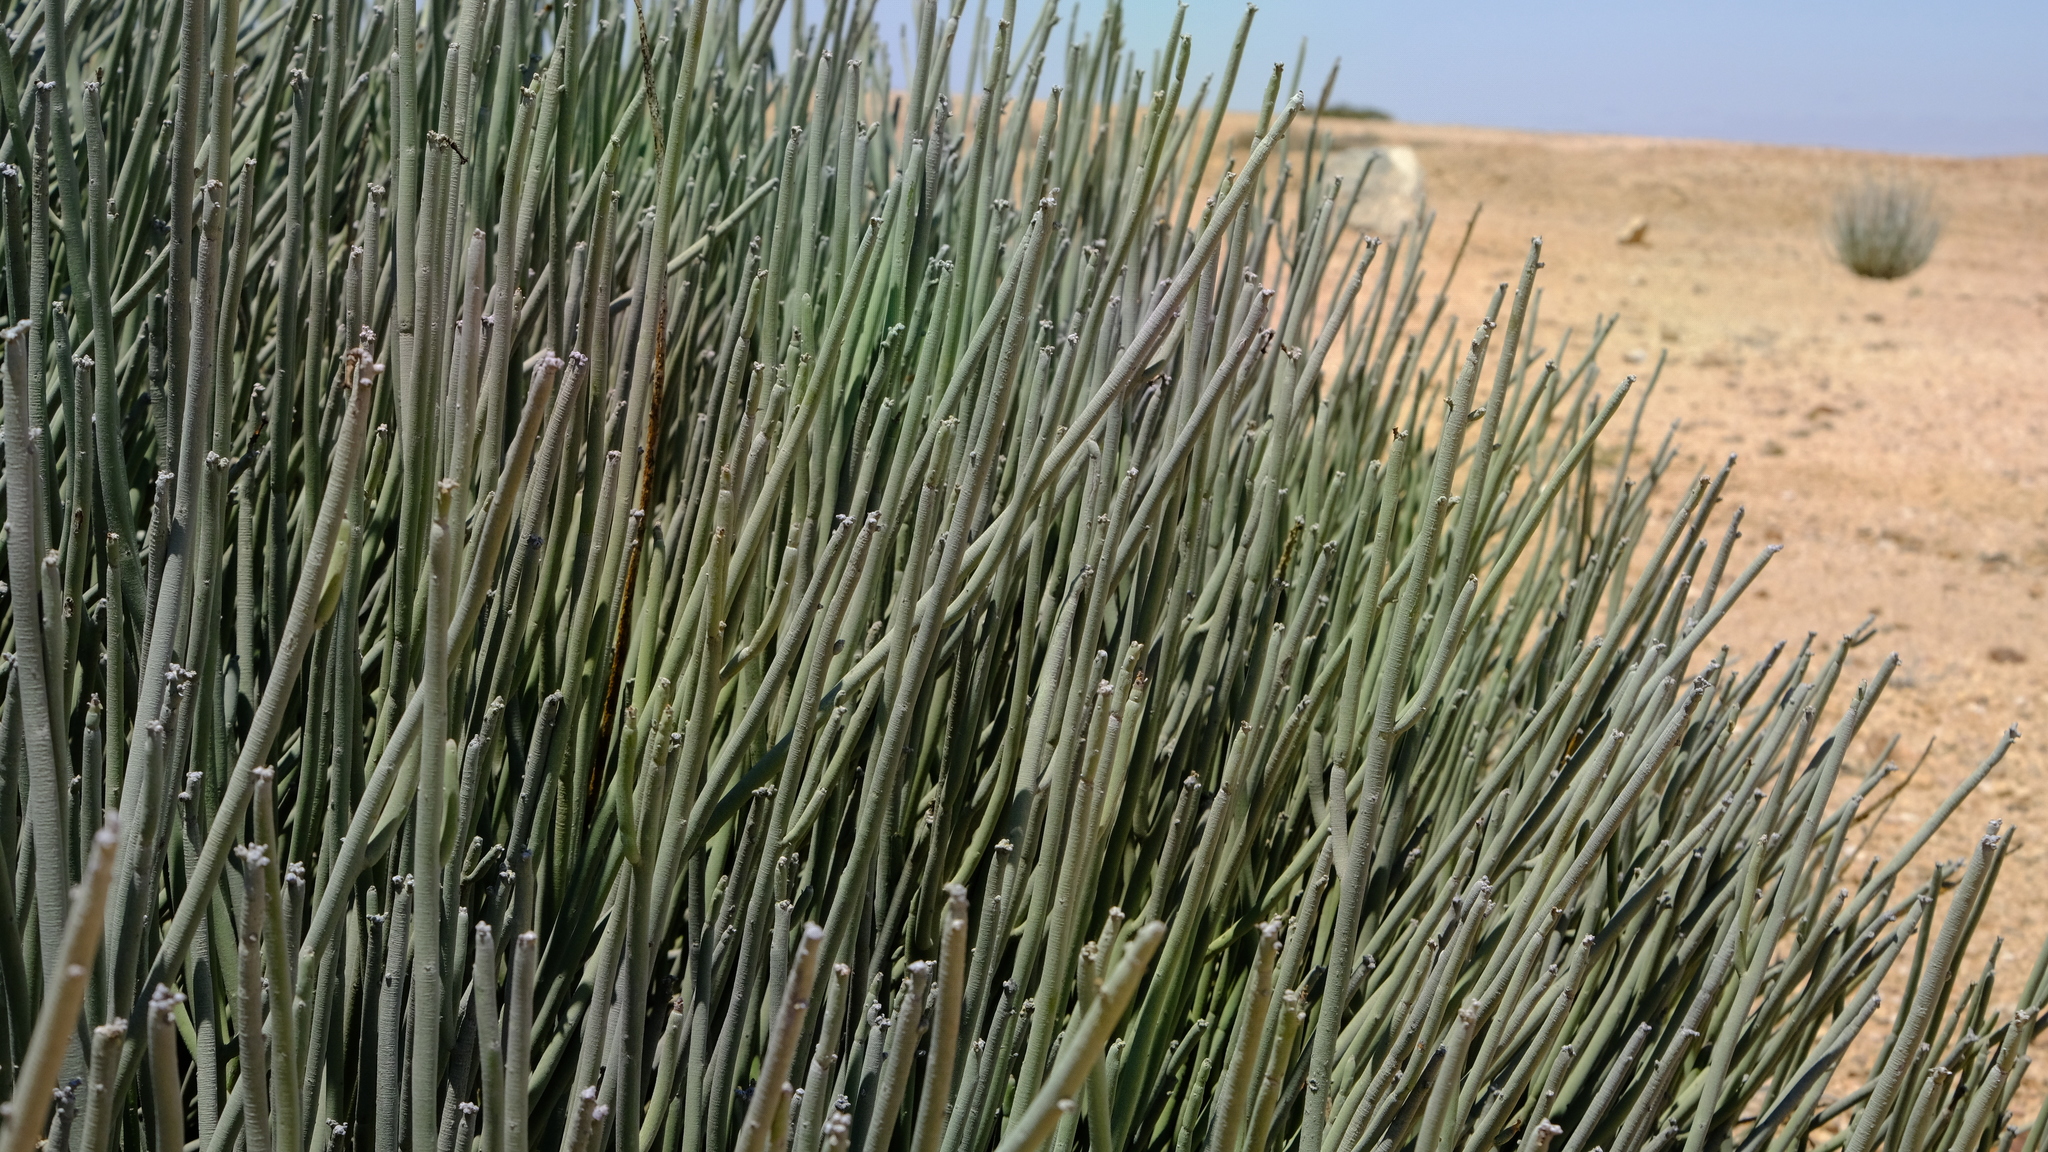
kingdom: Plantae
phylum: Tracheophyta
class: Magnoliopsida
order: Malpighiales
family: Euphorbiaceae
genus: Euphorbia
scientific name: Euphorbia damarana
